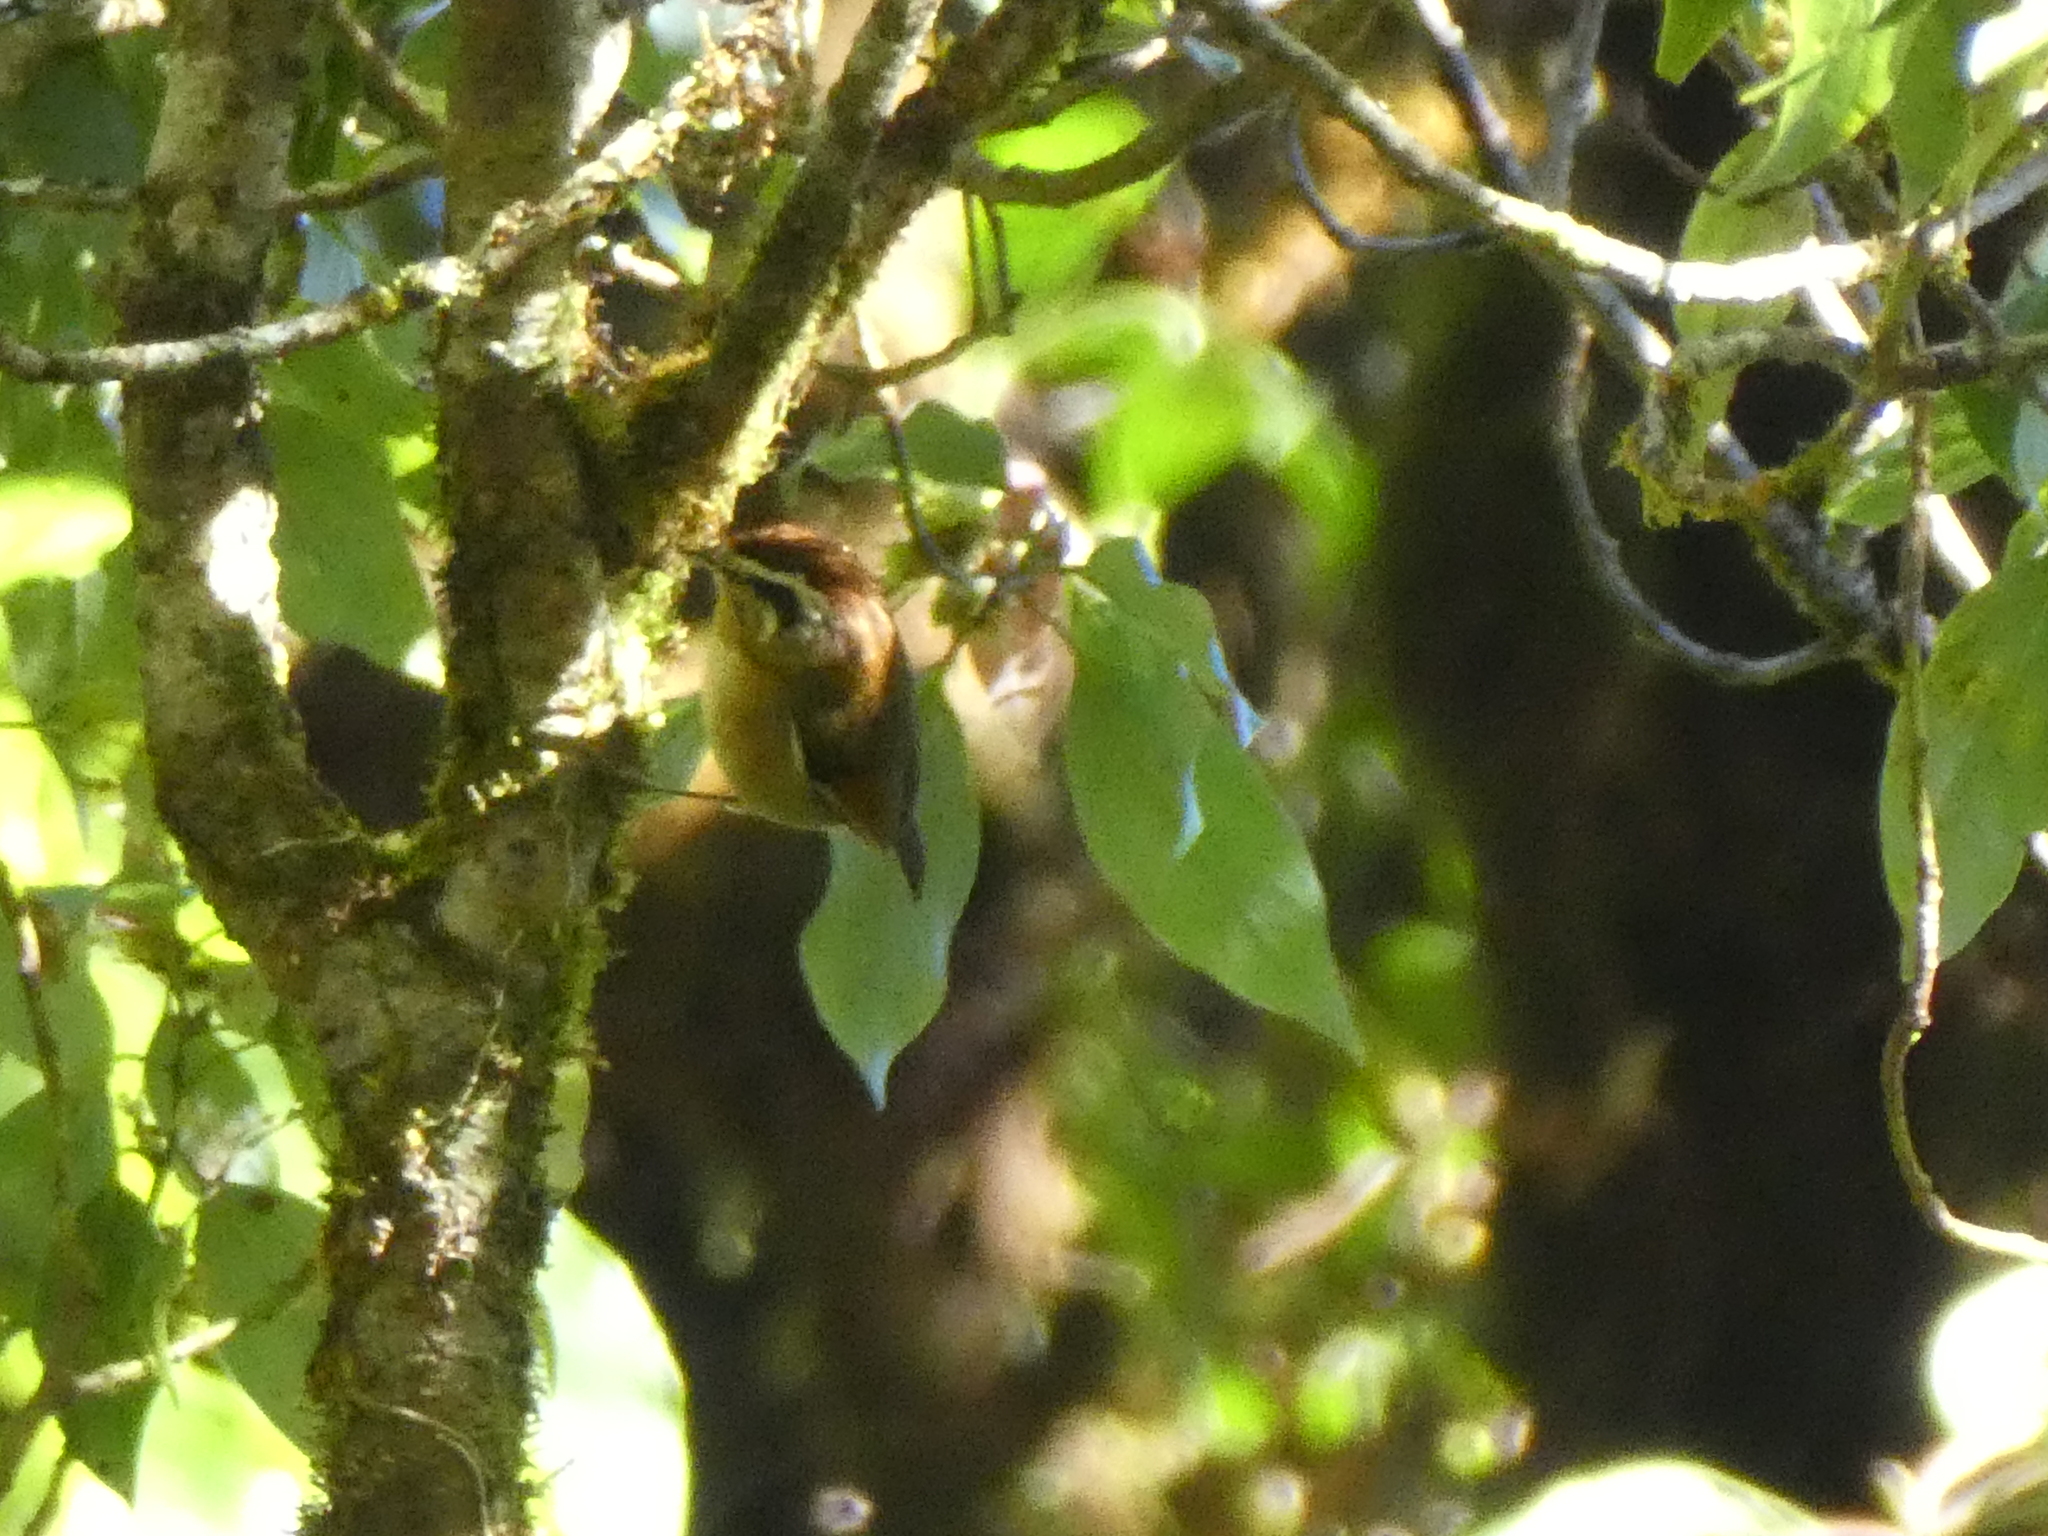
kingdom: Animalia
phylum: Chordata
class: Aves
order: Passeriformes
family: Pellorneidae
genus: Alcippe
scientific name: Alcippe castaneceps
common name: Rufous-winged fulvetta
